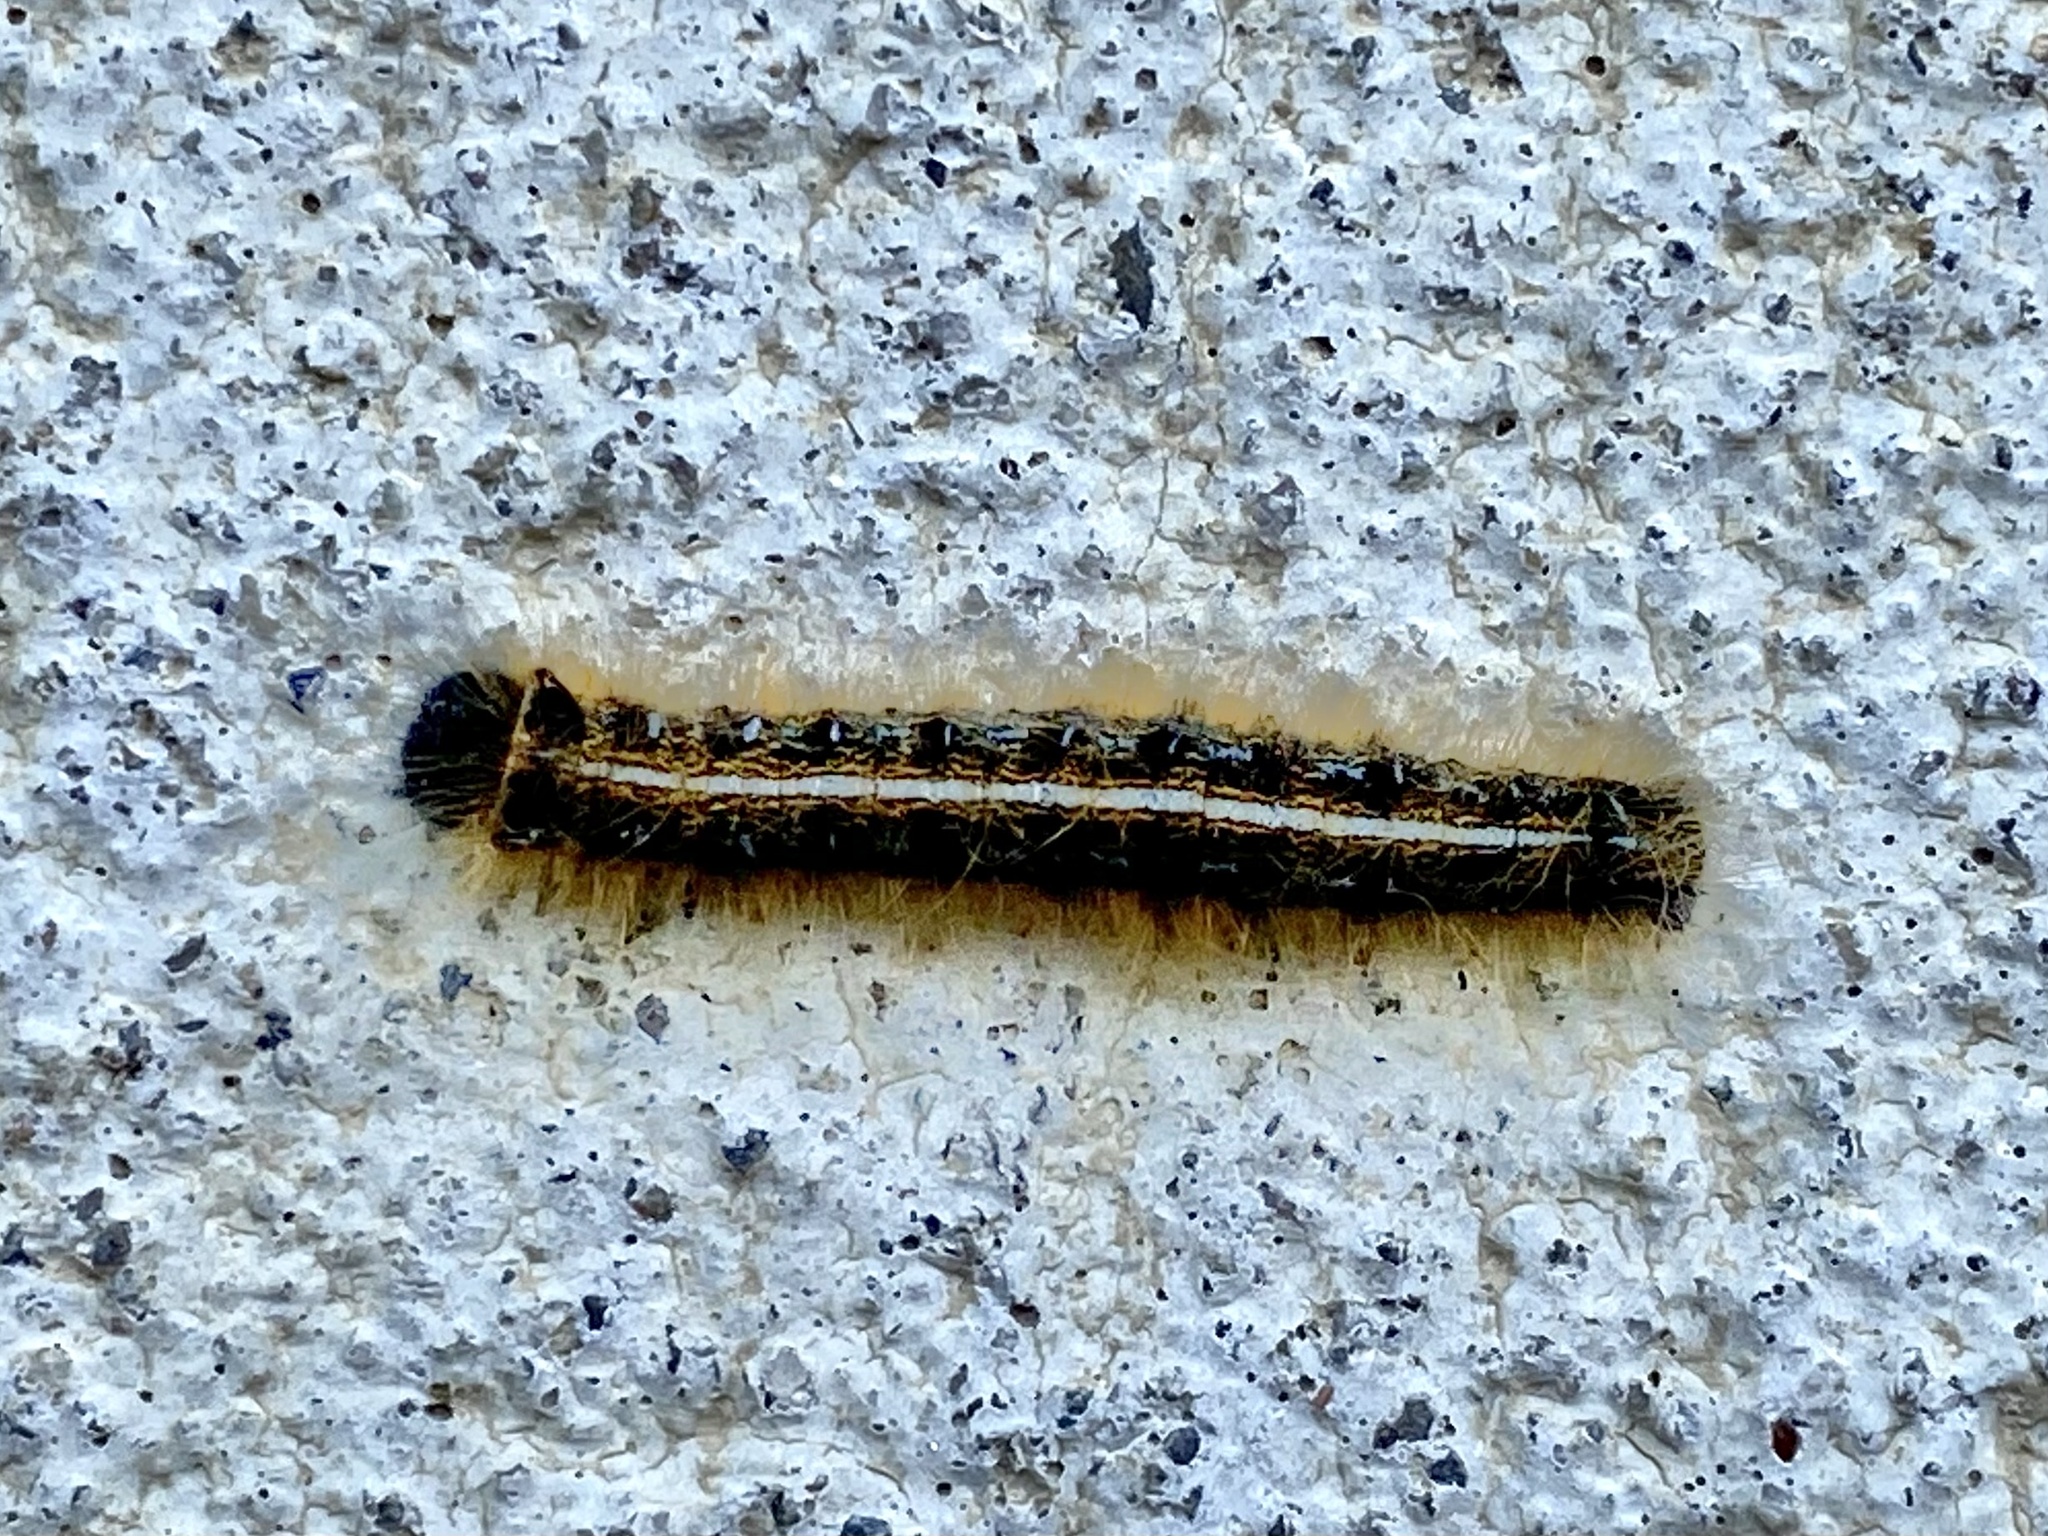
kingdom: Animalia
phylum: Arthropoda
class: Insecta
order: Lepidoptera
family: Lasiocampidae
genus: Malacosoma
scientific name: Malacosoma americana
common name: Eastern tent caterpillar moth
